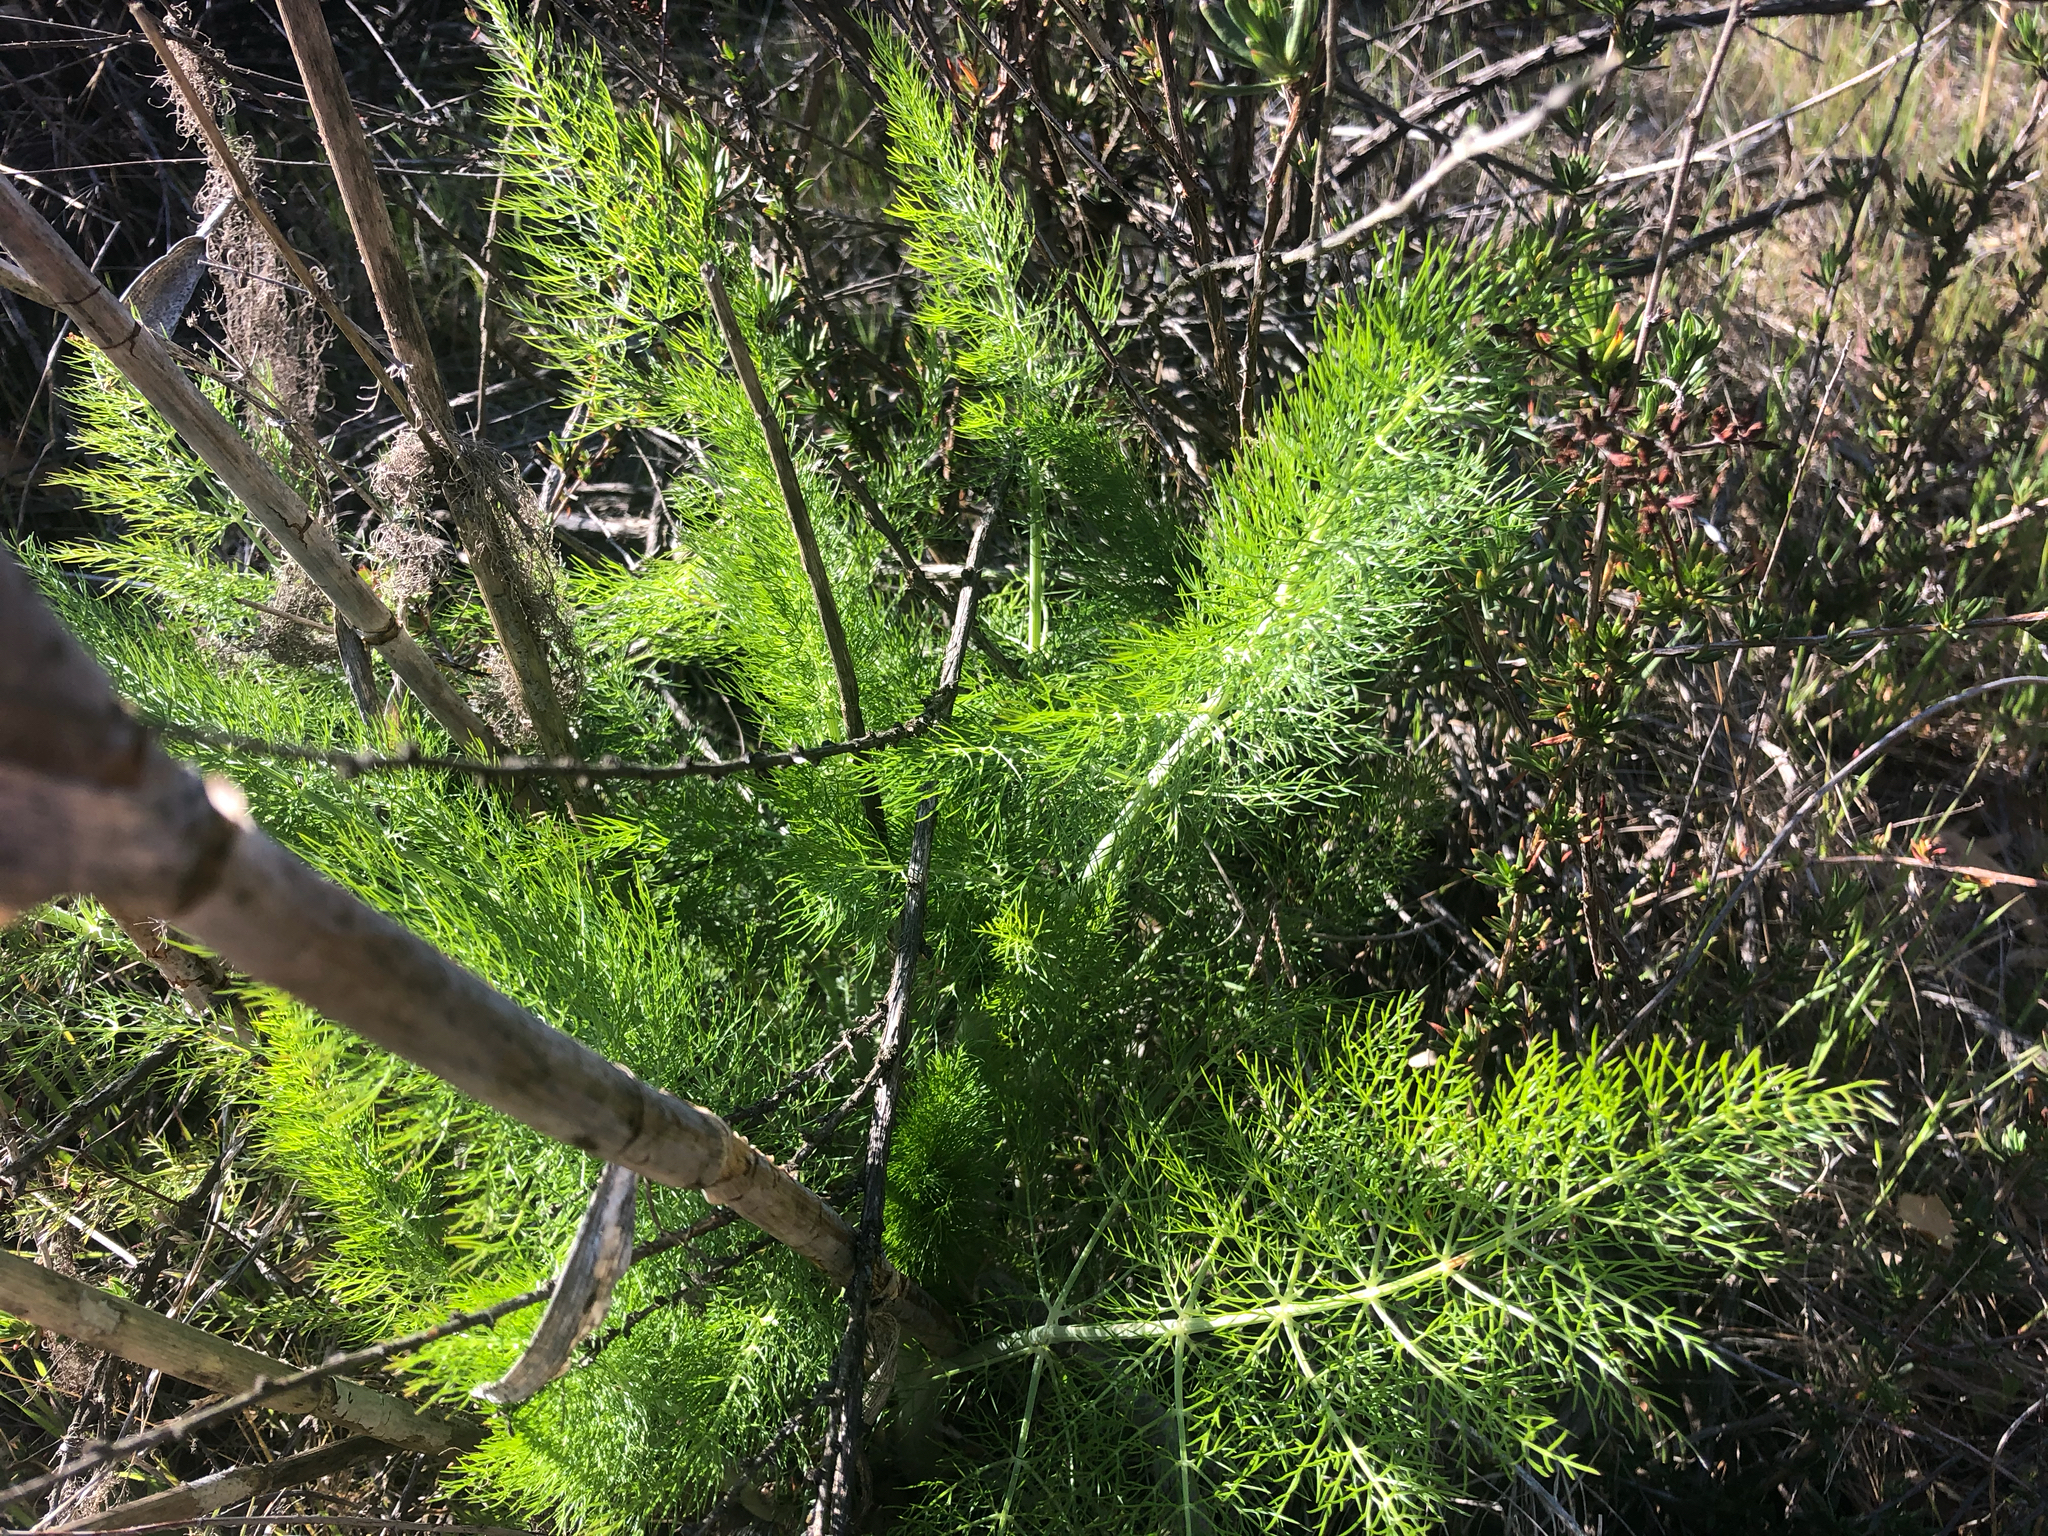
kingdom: Plantae
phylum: Tracheophyta
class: Magnoliopsida
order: Apiales
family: Apiaceae
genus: Foeniculum
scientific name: Foeniculum vulgare
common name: Fennel
